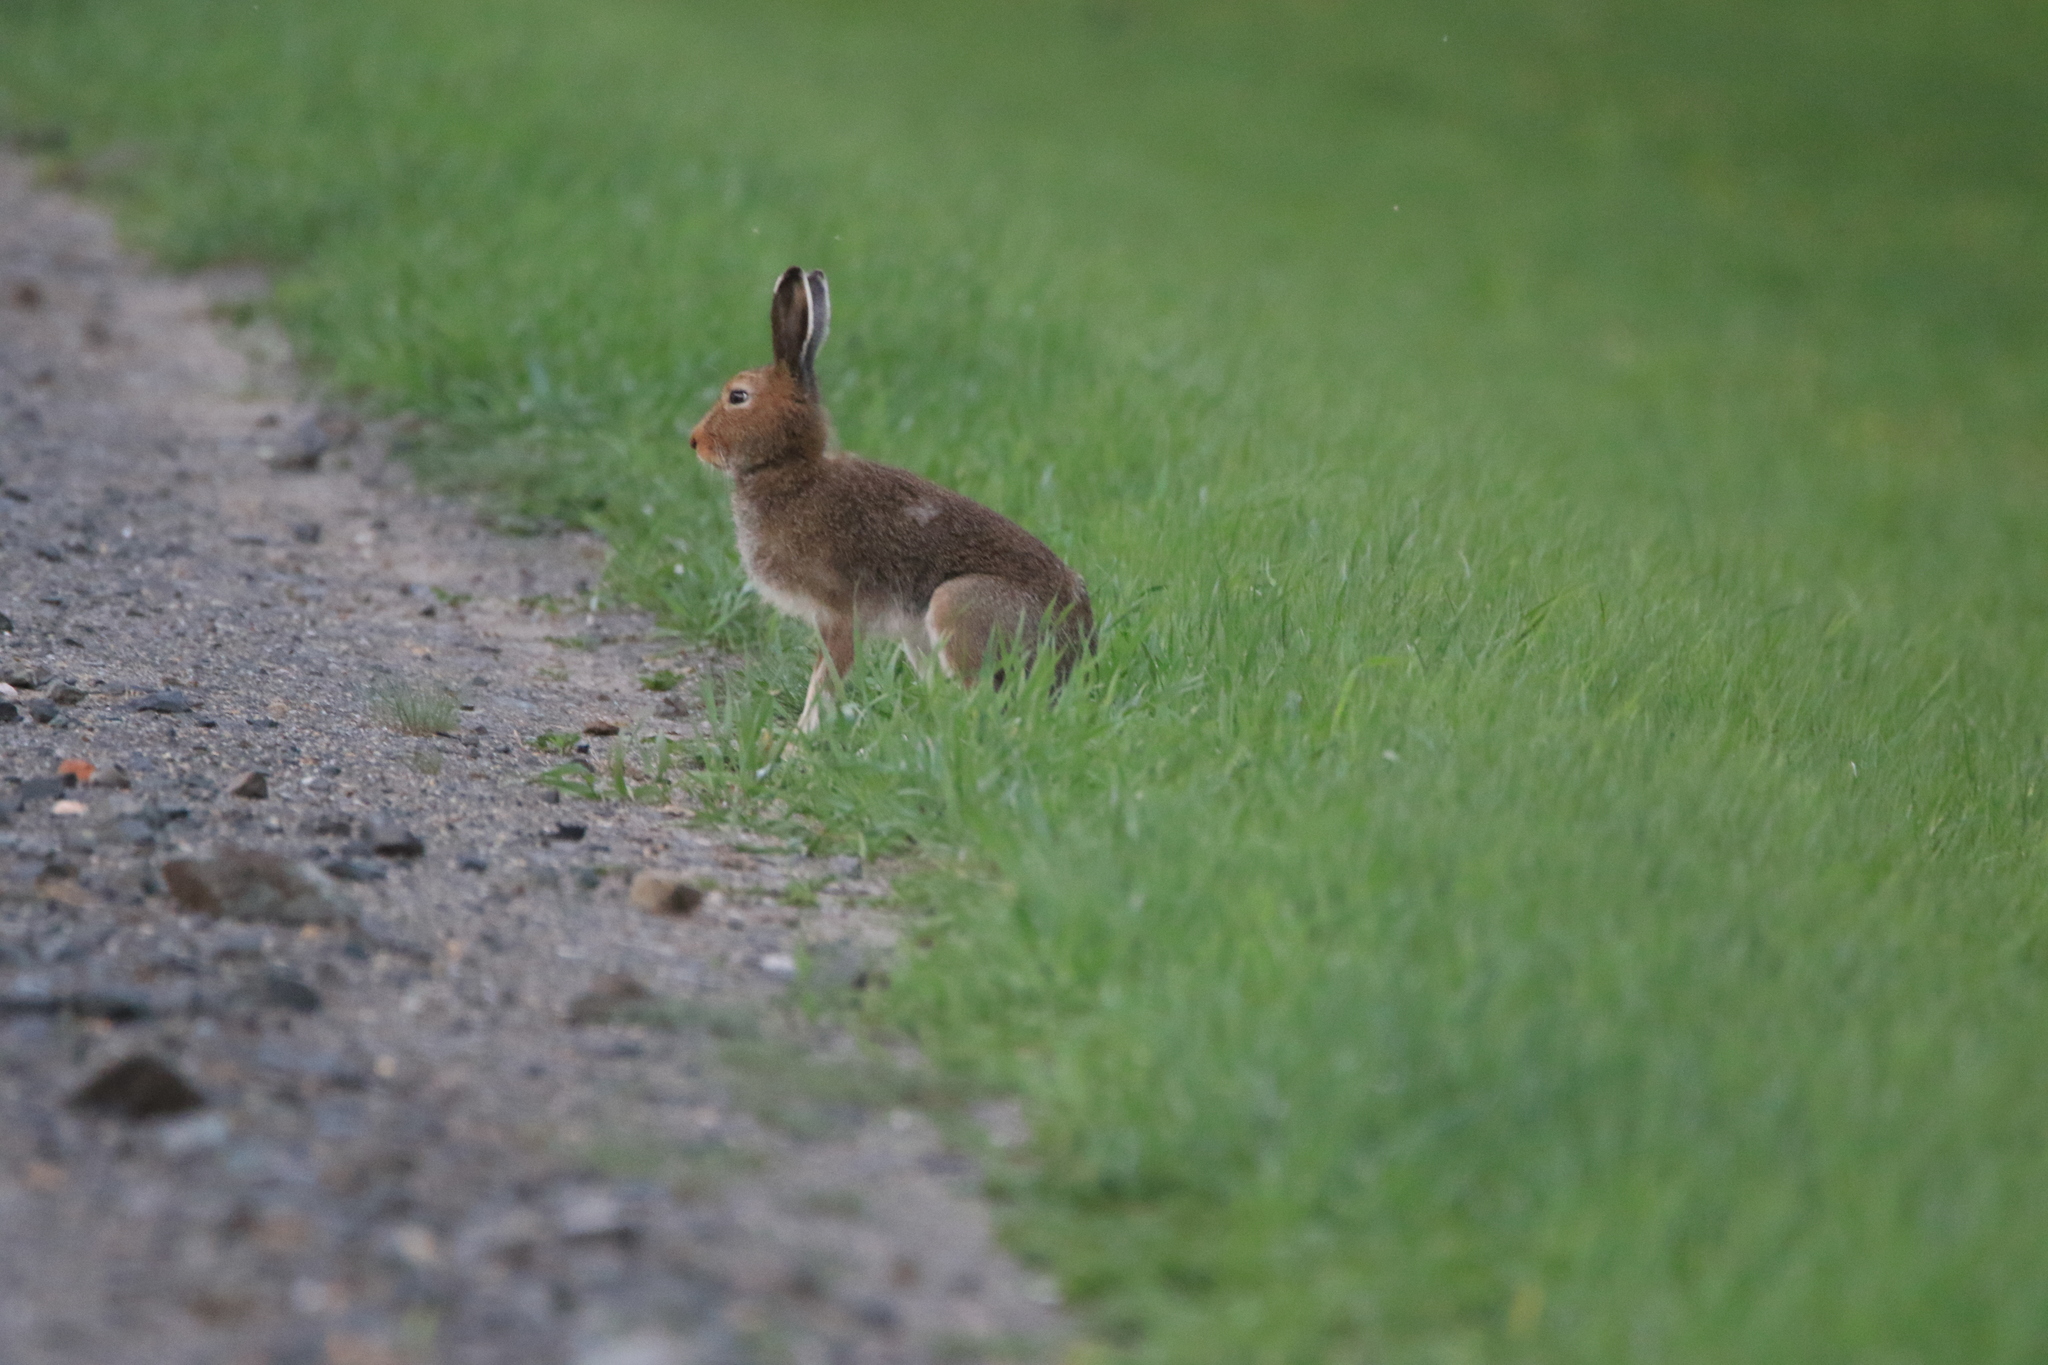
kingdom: Animalia
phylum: Chordata
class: Mammalia
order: Lagomorpha
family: Leporidae
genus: Lepus
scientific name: Lepus timidus
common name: Mountain hare
